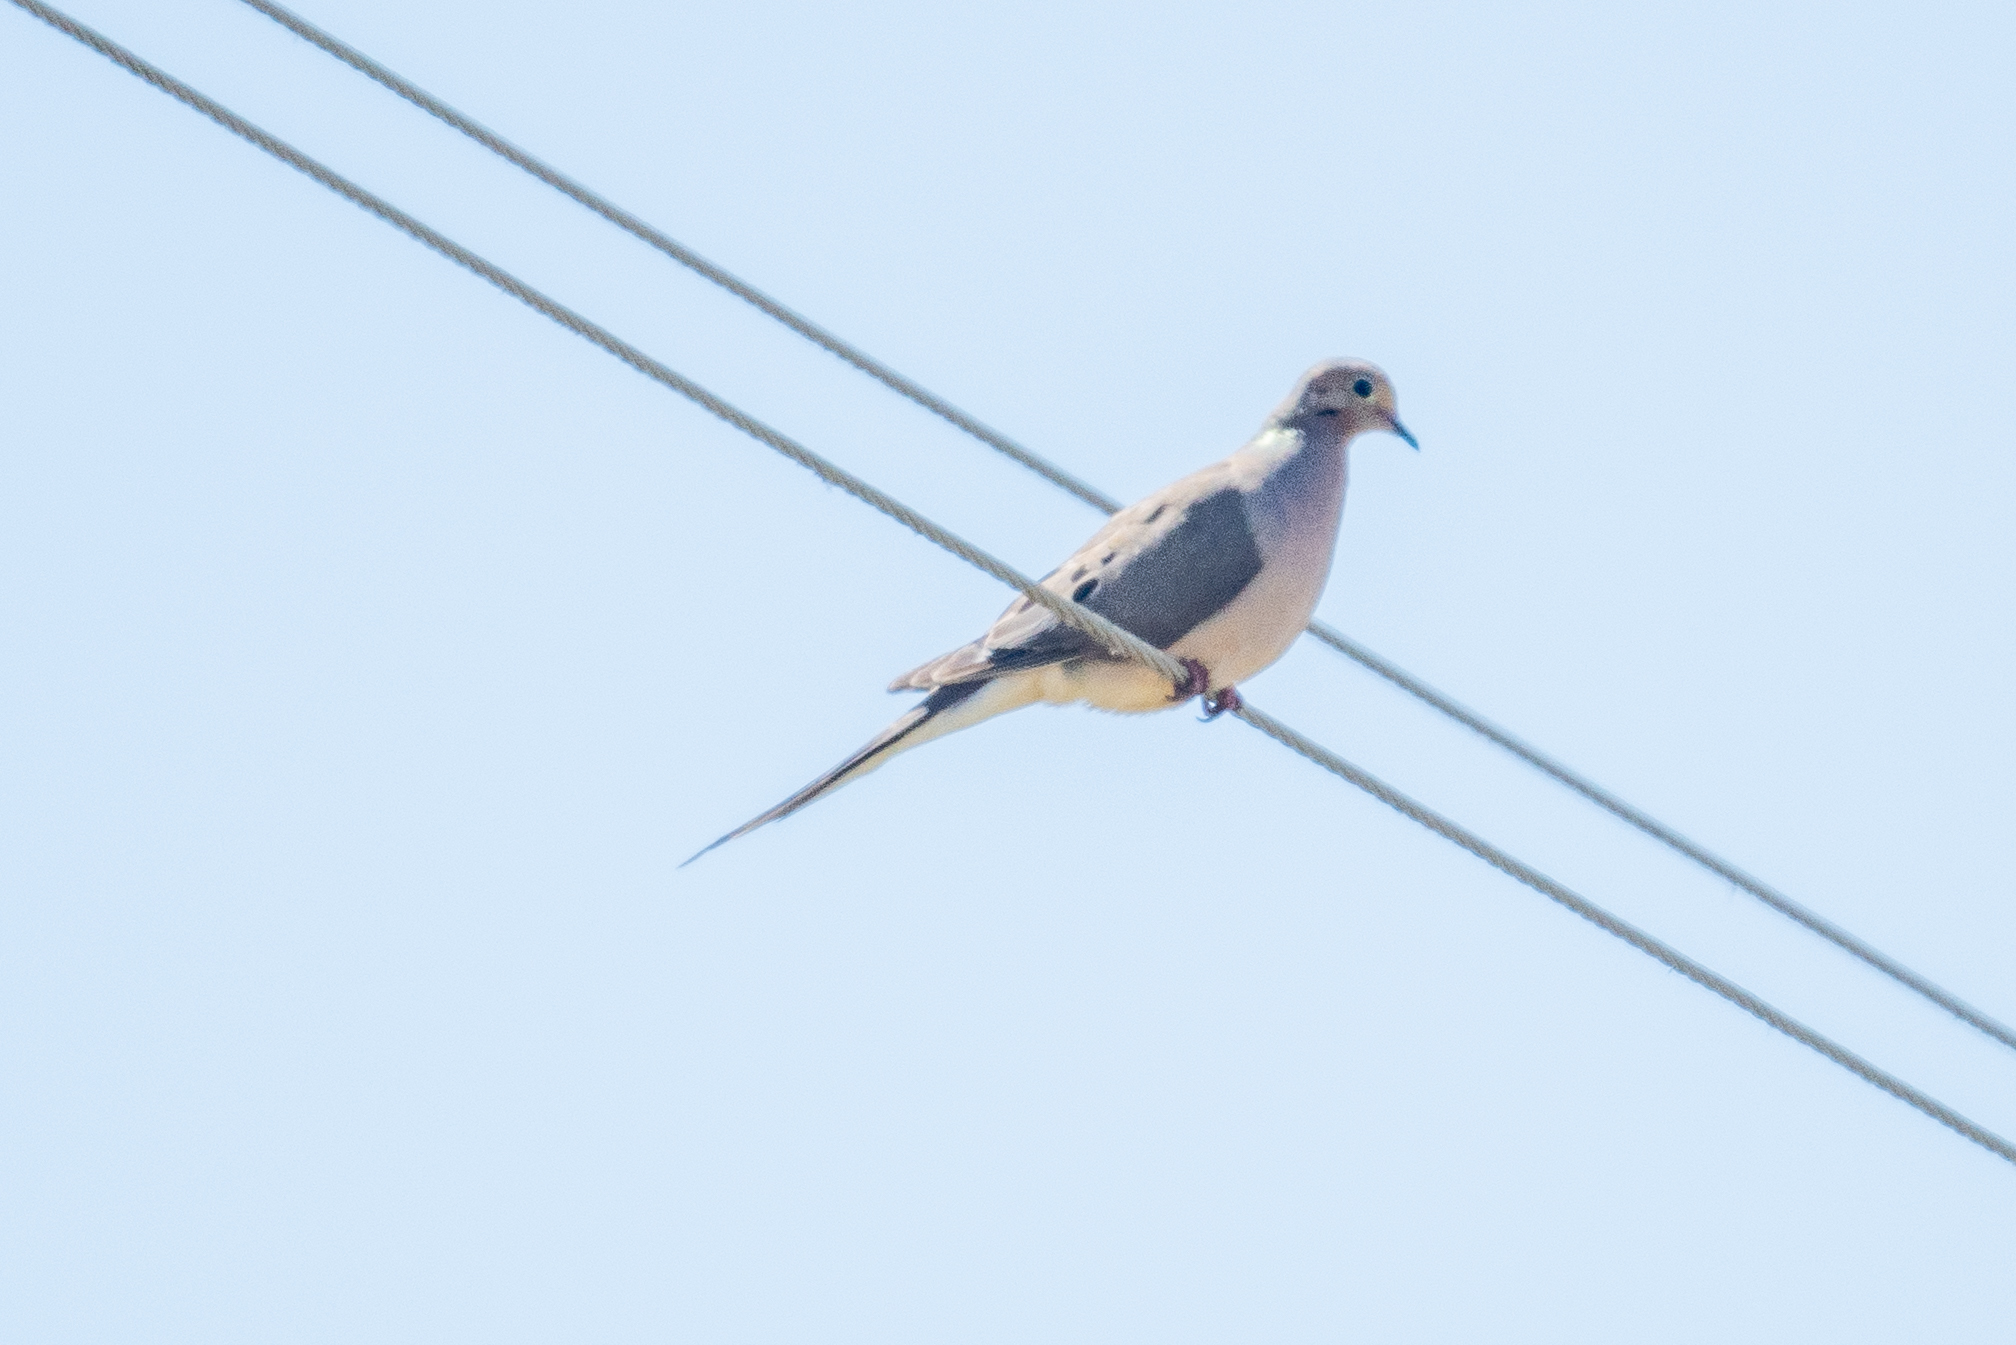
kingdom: Animalia
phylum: Chordata
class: Aves
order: Columbiformes
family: Columbidae
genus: Zenaida
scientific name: Zenaida macroura
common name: Mourning dove
